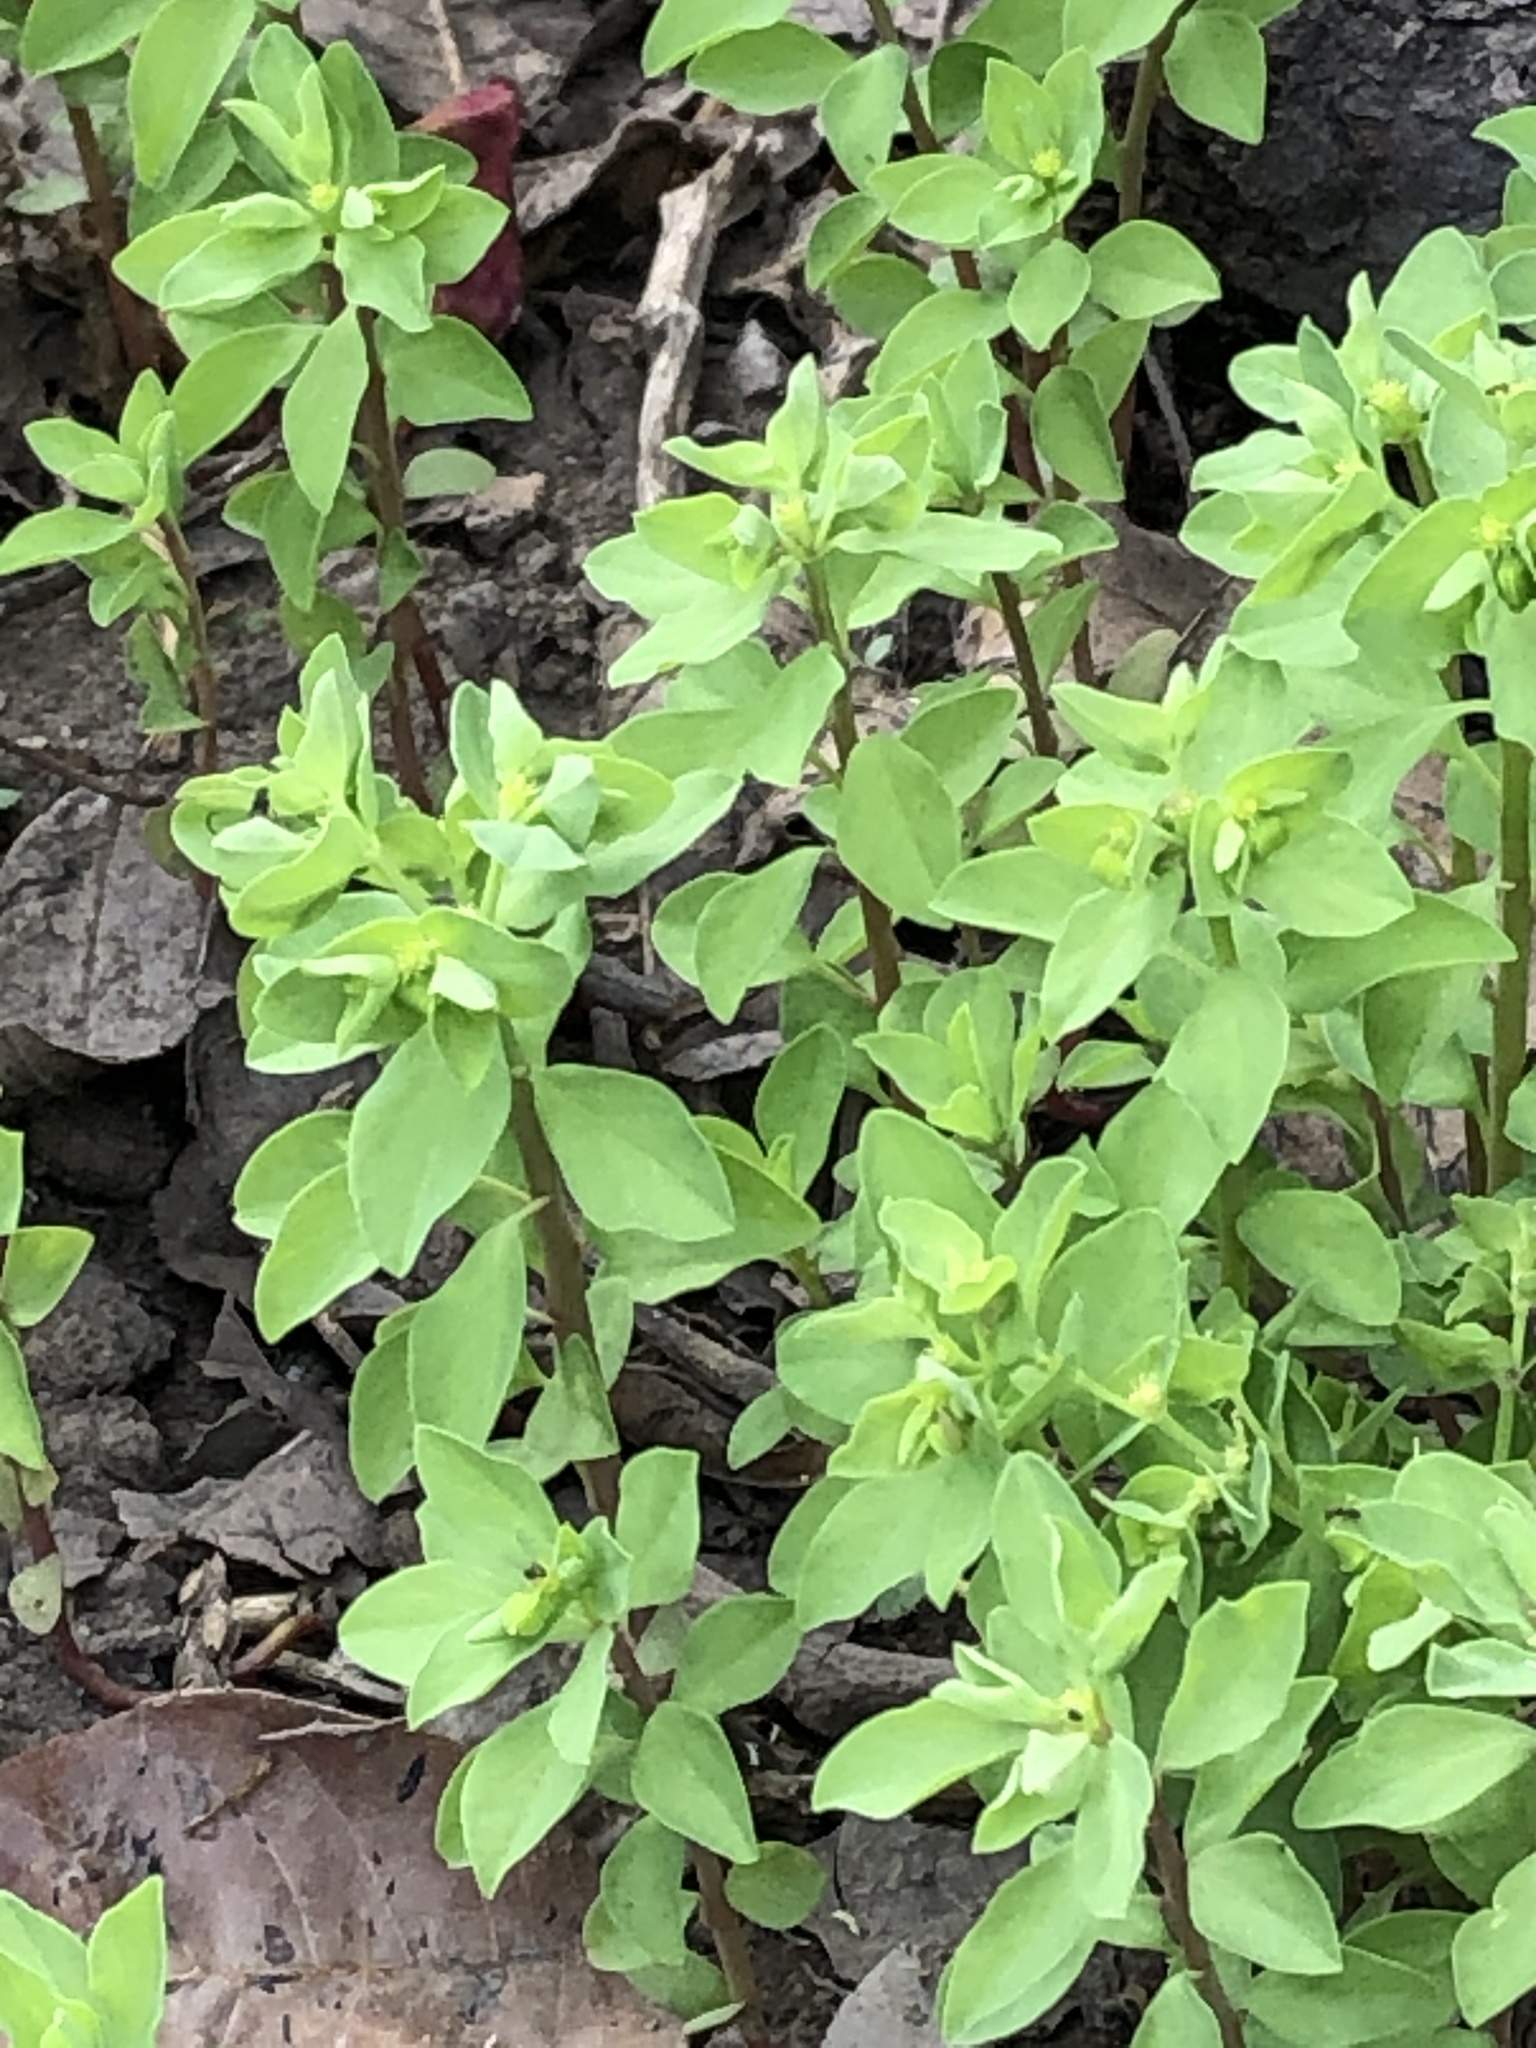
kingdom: Plantae
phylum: Tracheophyta
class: Magnoliopsida
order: Malpighiales
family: Euphorbiaceae
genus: Euphorbia
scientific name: Euphorbia peplus
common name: Petty spurge
